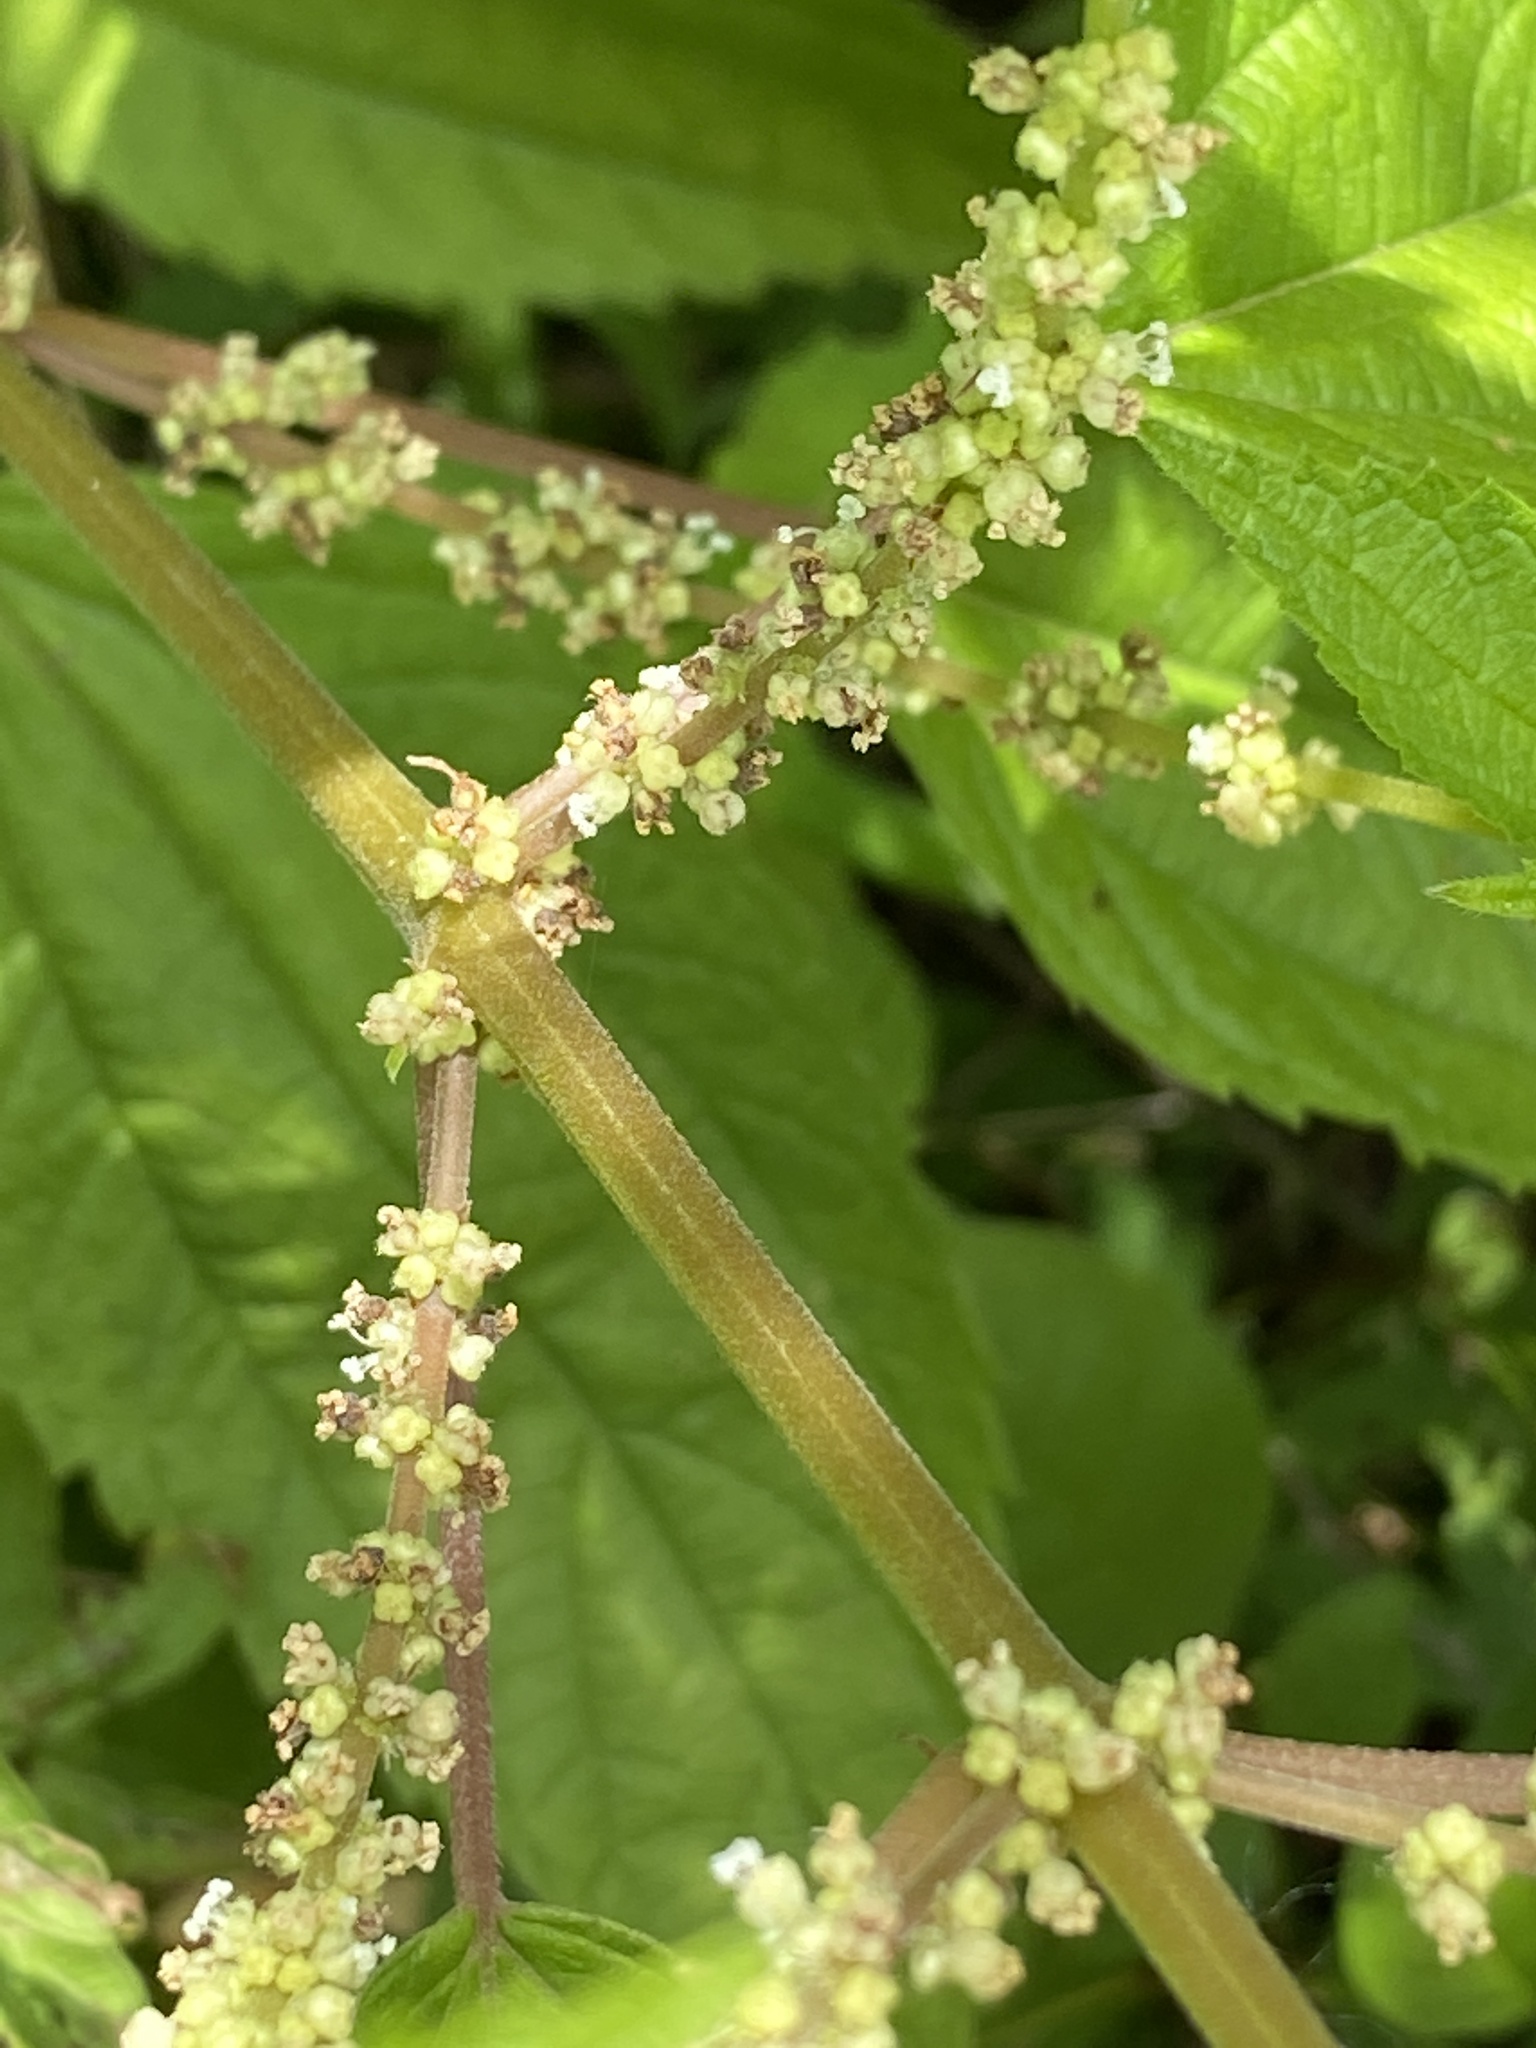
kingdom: Plantae
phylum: Tracheophyta
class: Magnoliopsida
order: Rosales
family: Urticaceae
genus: Boehmeria
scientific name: Boehmeria cylindrica
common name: Bog-hemp
